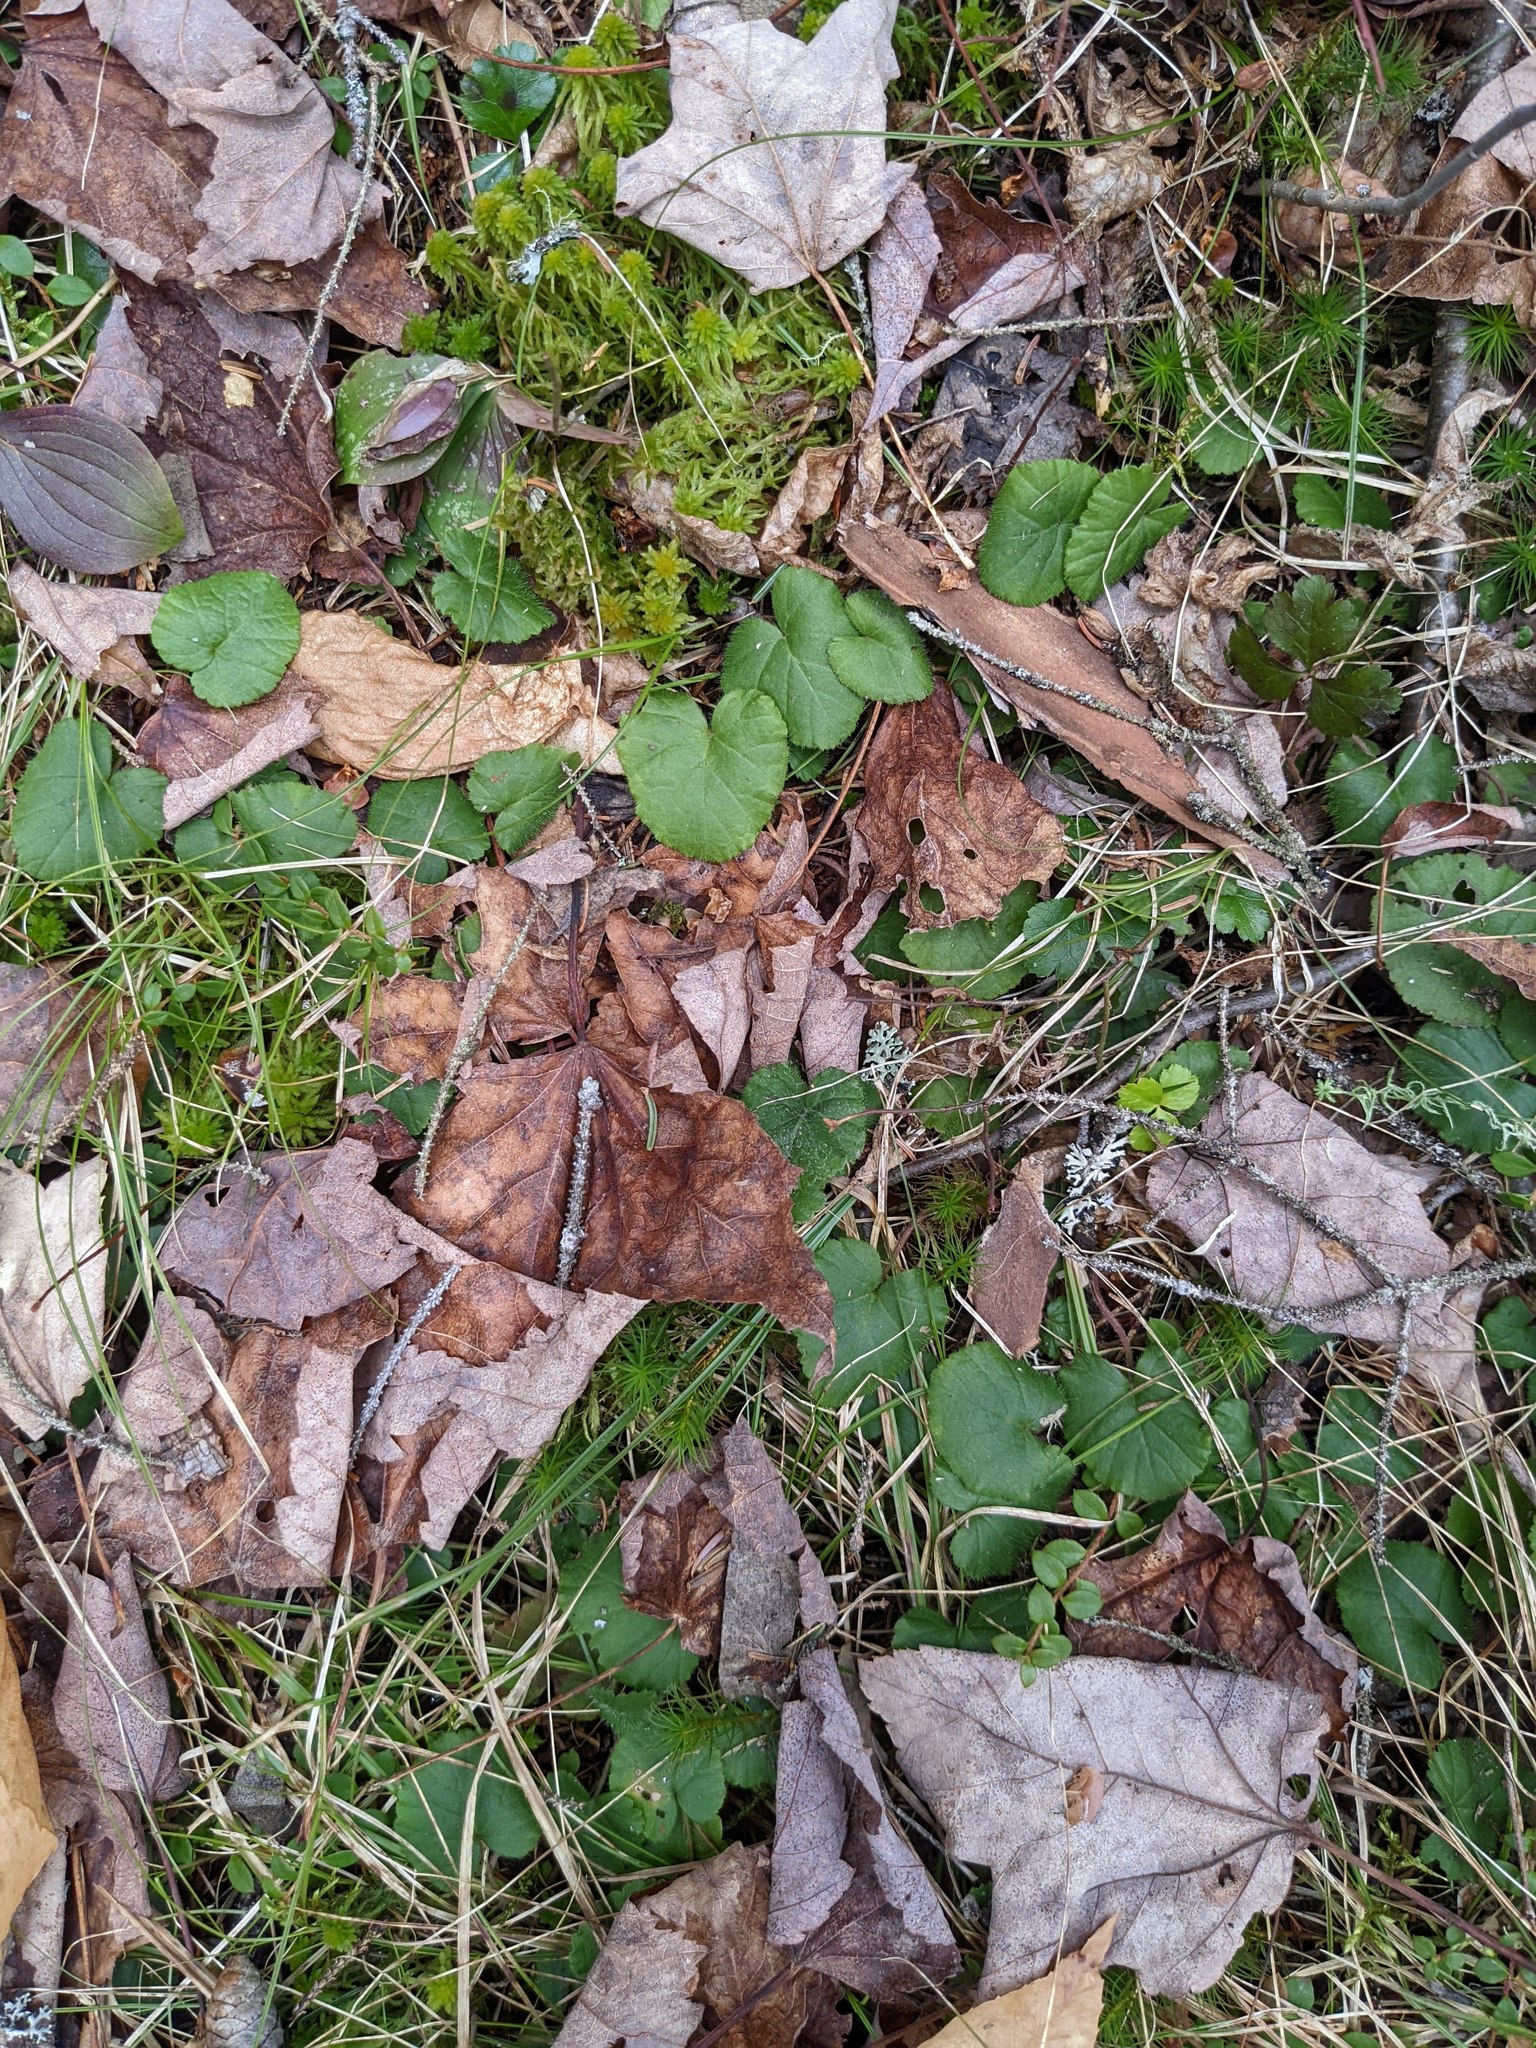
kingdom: Plantae
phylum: Tracheophyta
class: Magnoliopsida
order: Rosales
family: Rosaceae
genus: Dalibarda
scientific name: Dalibarda repens
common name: Dewdrop
